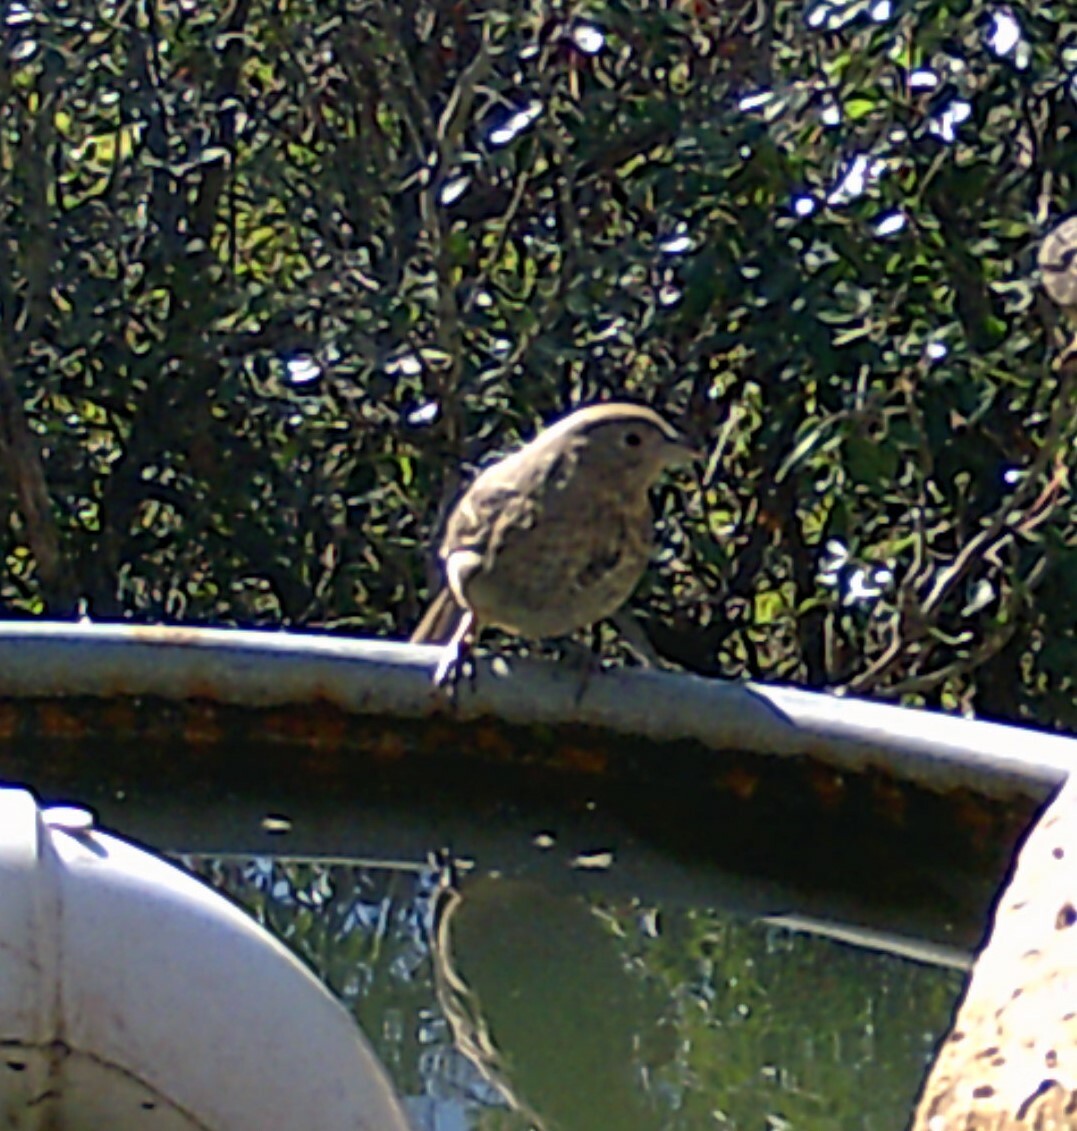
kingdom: Animalia
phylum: Chordata
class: Aves
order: Passeriformes
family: Passerellidae
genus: Melozone
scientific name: Melozone fusca
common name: Canyon towhee
